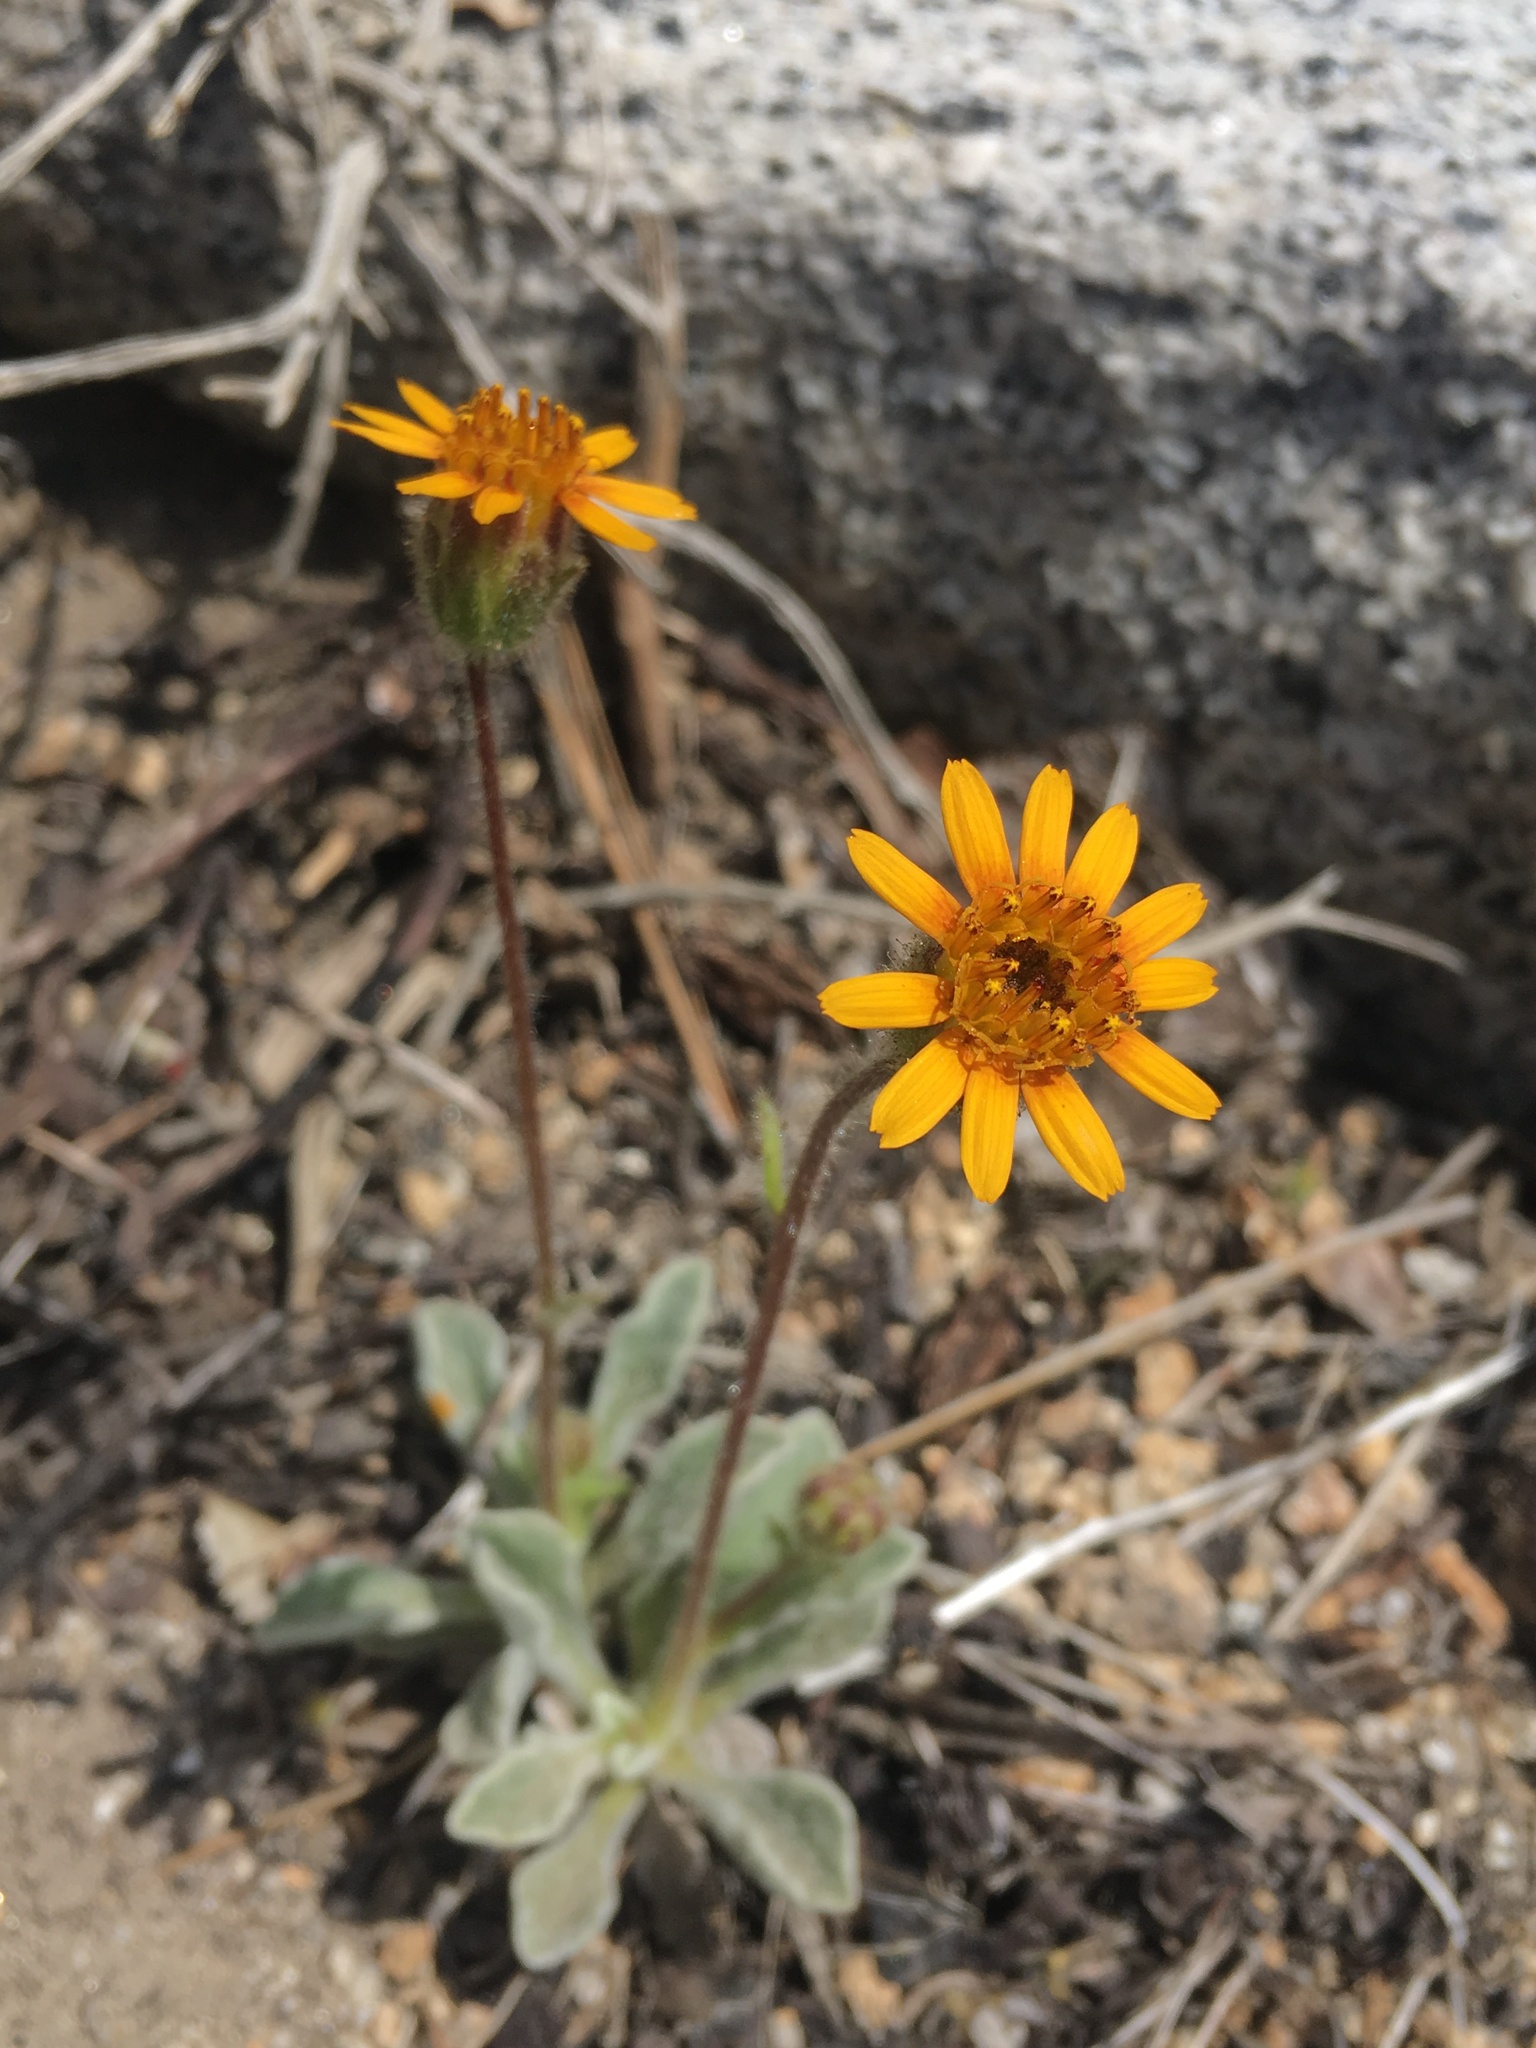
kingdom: Plantae
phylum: Tracheophyta
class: Magnoliopsida
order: Asterales
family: Asteraceae
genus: Hulsea
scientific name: Hulsea vestita
